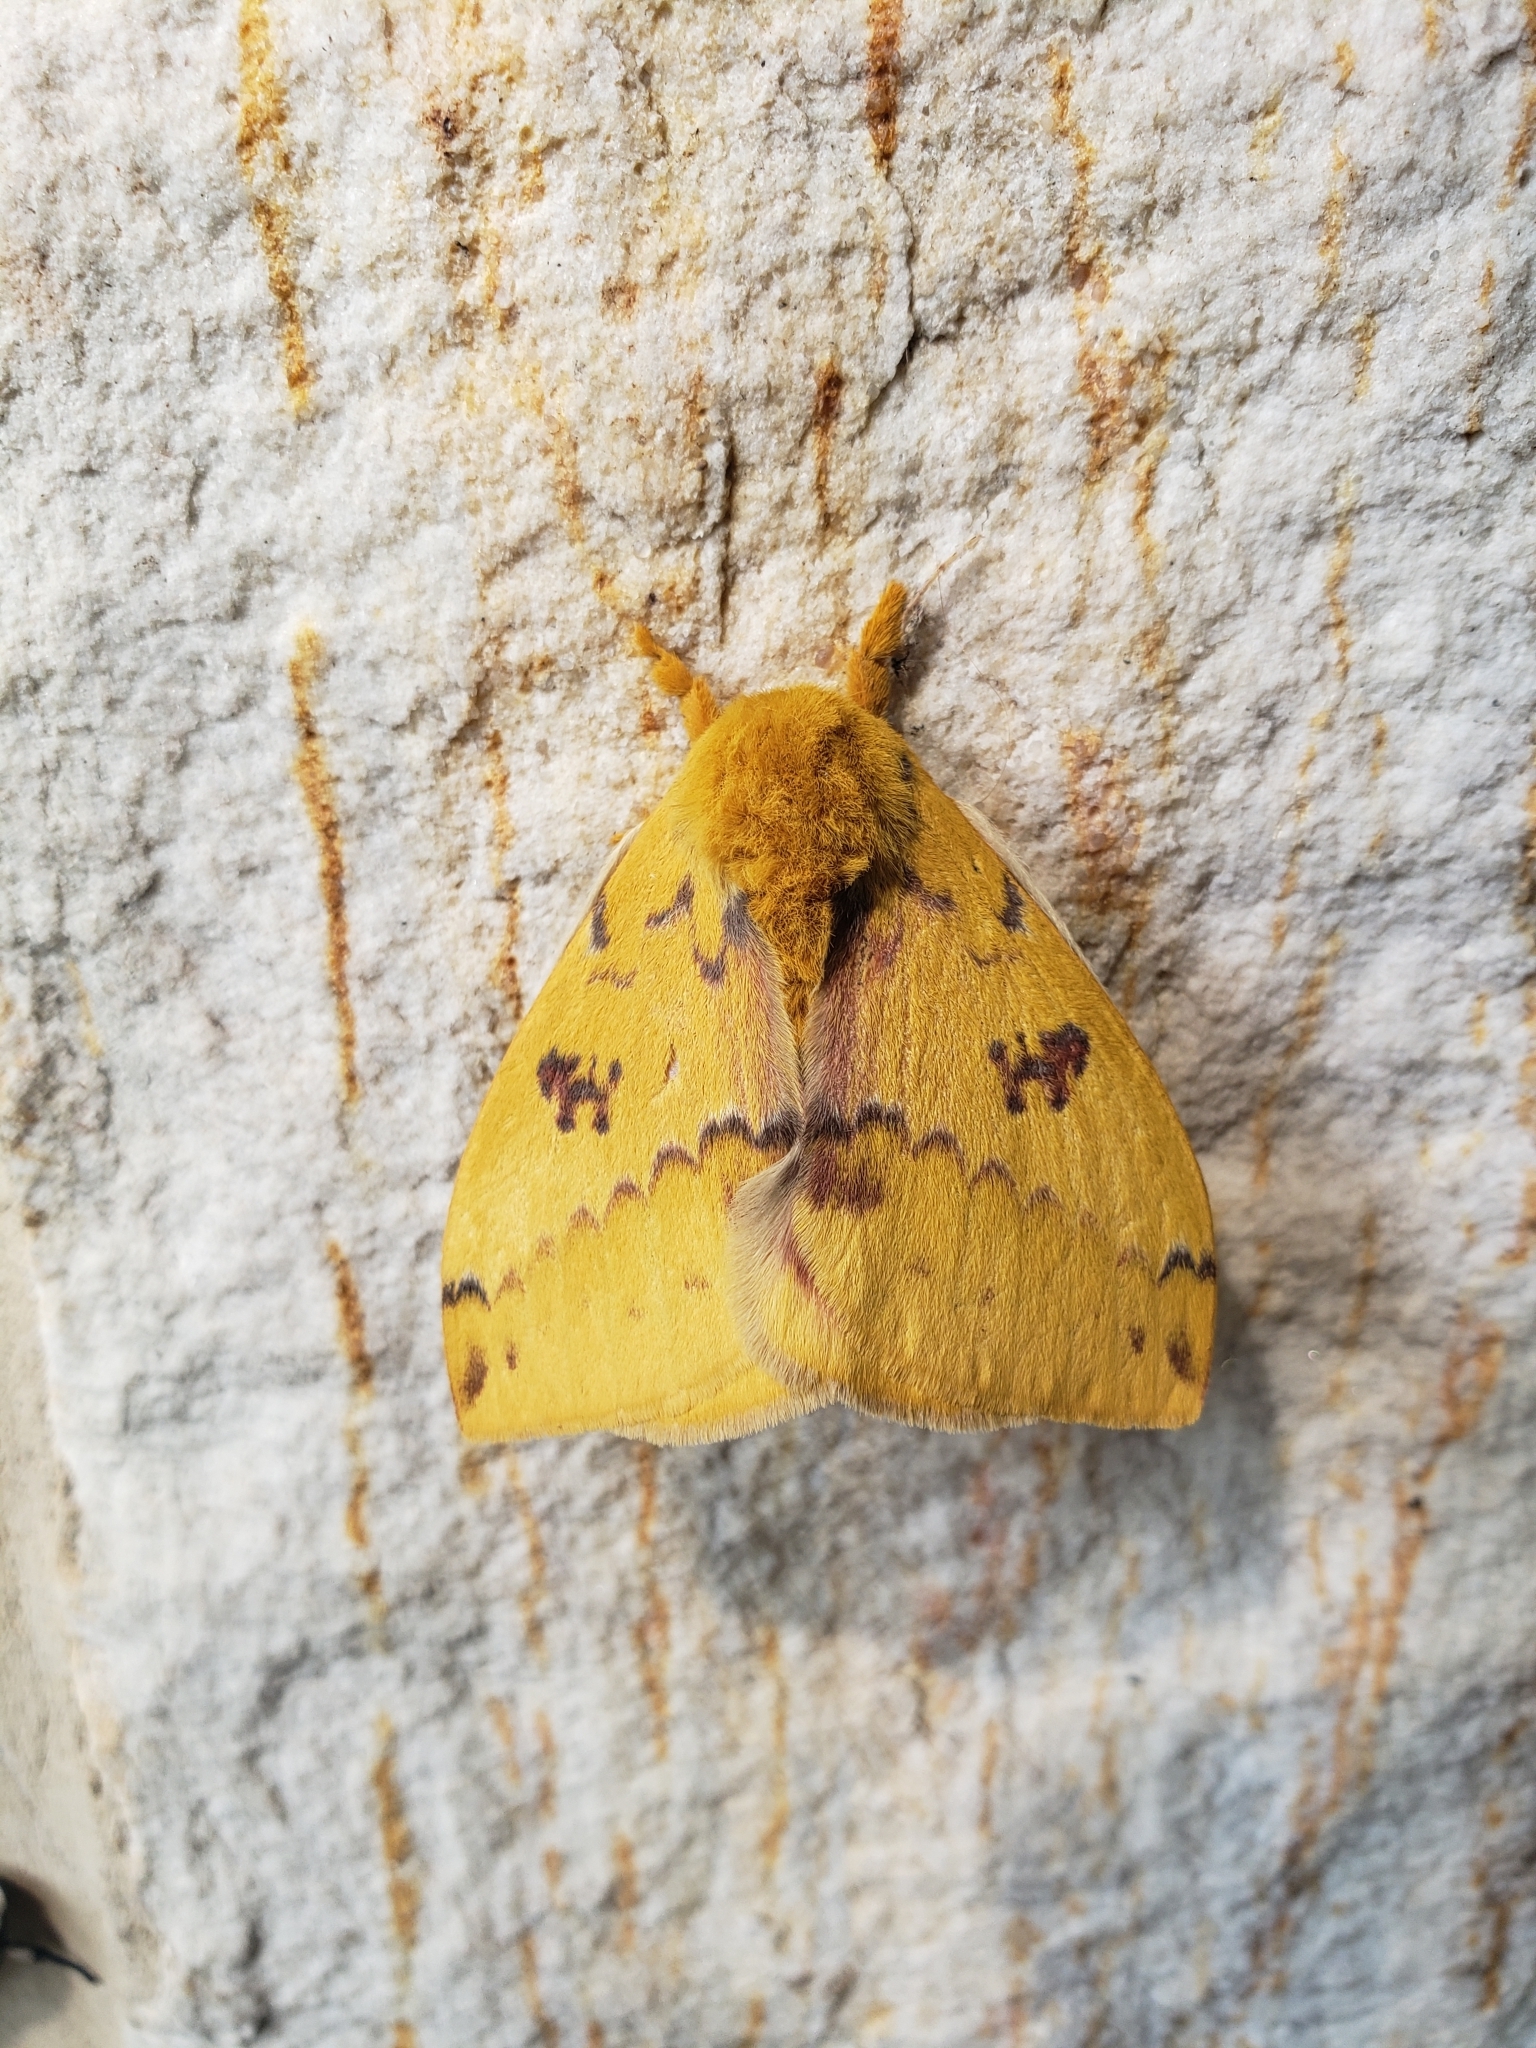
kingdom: Animalia
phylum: Arthropoda
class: Insecta
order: Lepidoptera
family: Saturniidae
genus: Automeris
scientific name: Automeris io
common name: Io moth
